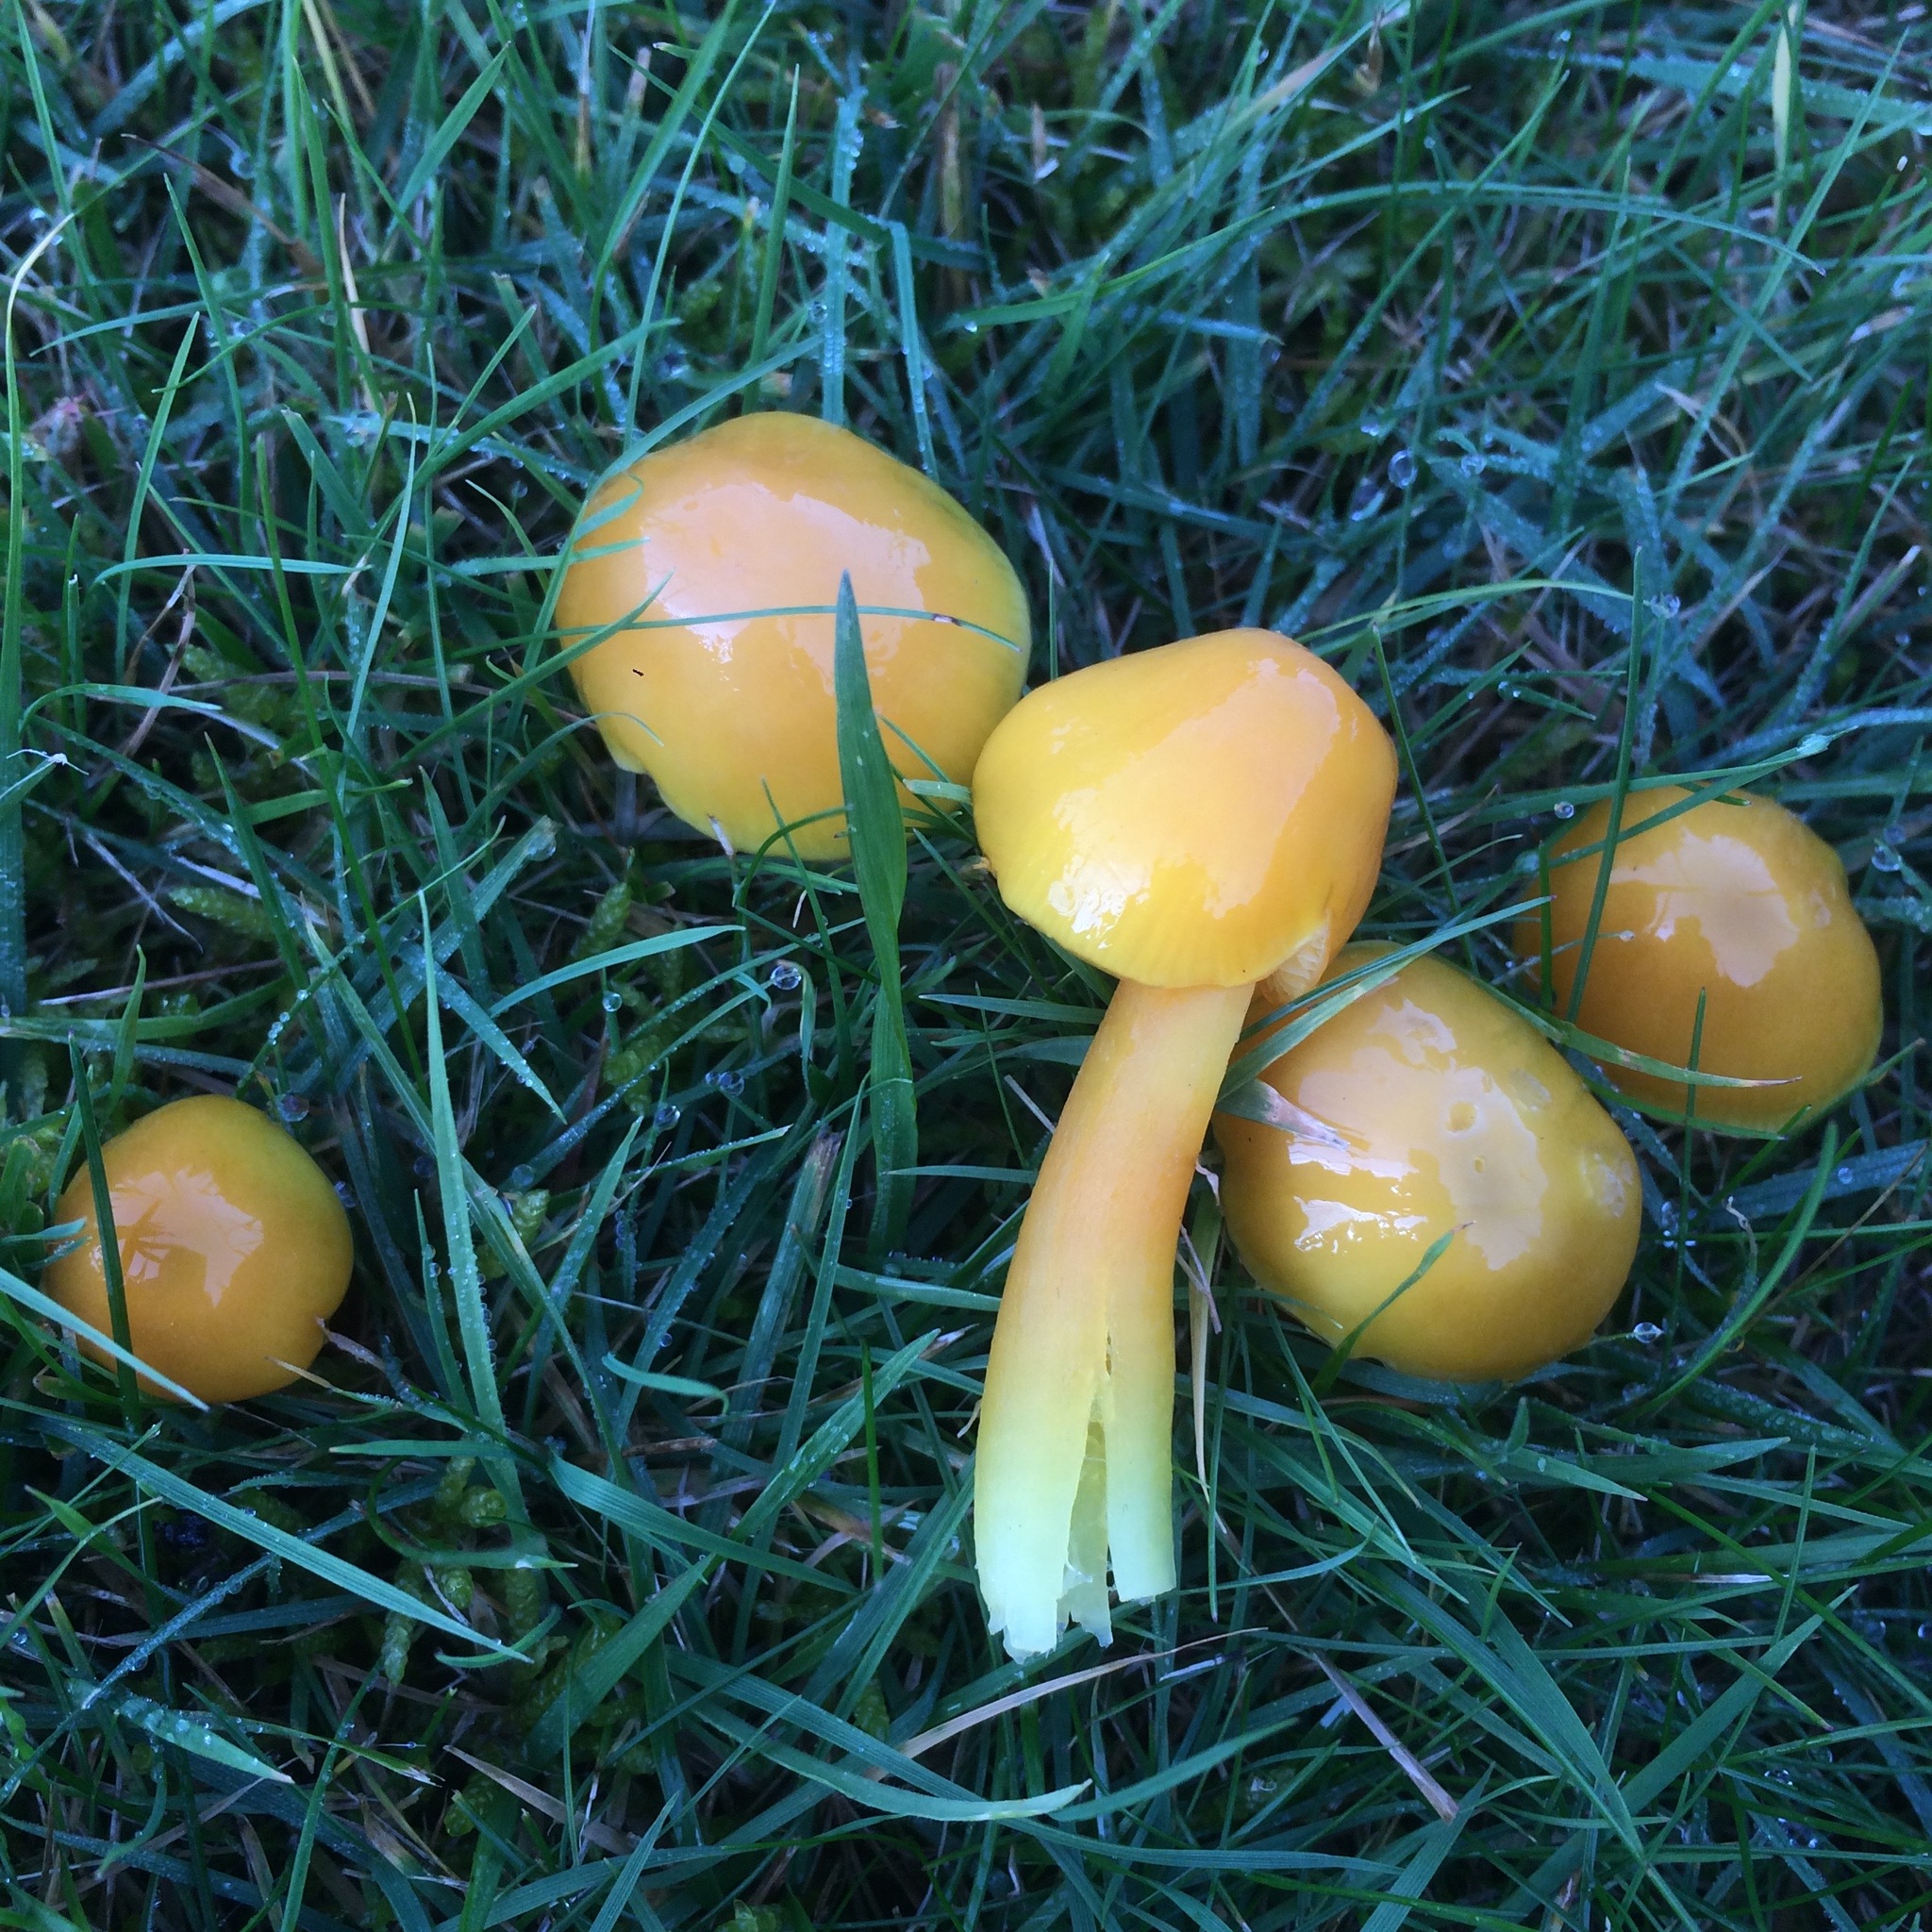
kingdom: Fungi
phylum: Basidiomycota
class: Agaricomycetes
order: Agaricales
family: Hygrophoraceae
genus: Hygrocybe
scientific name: Hygrocybe chlorophana
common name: Golden waxcap
